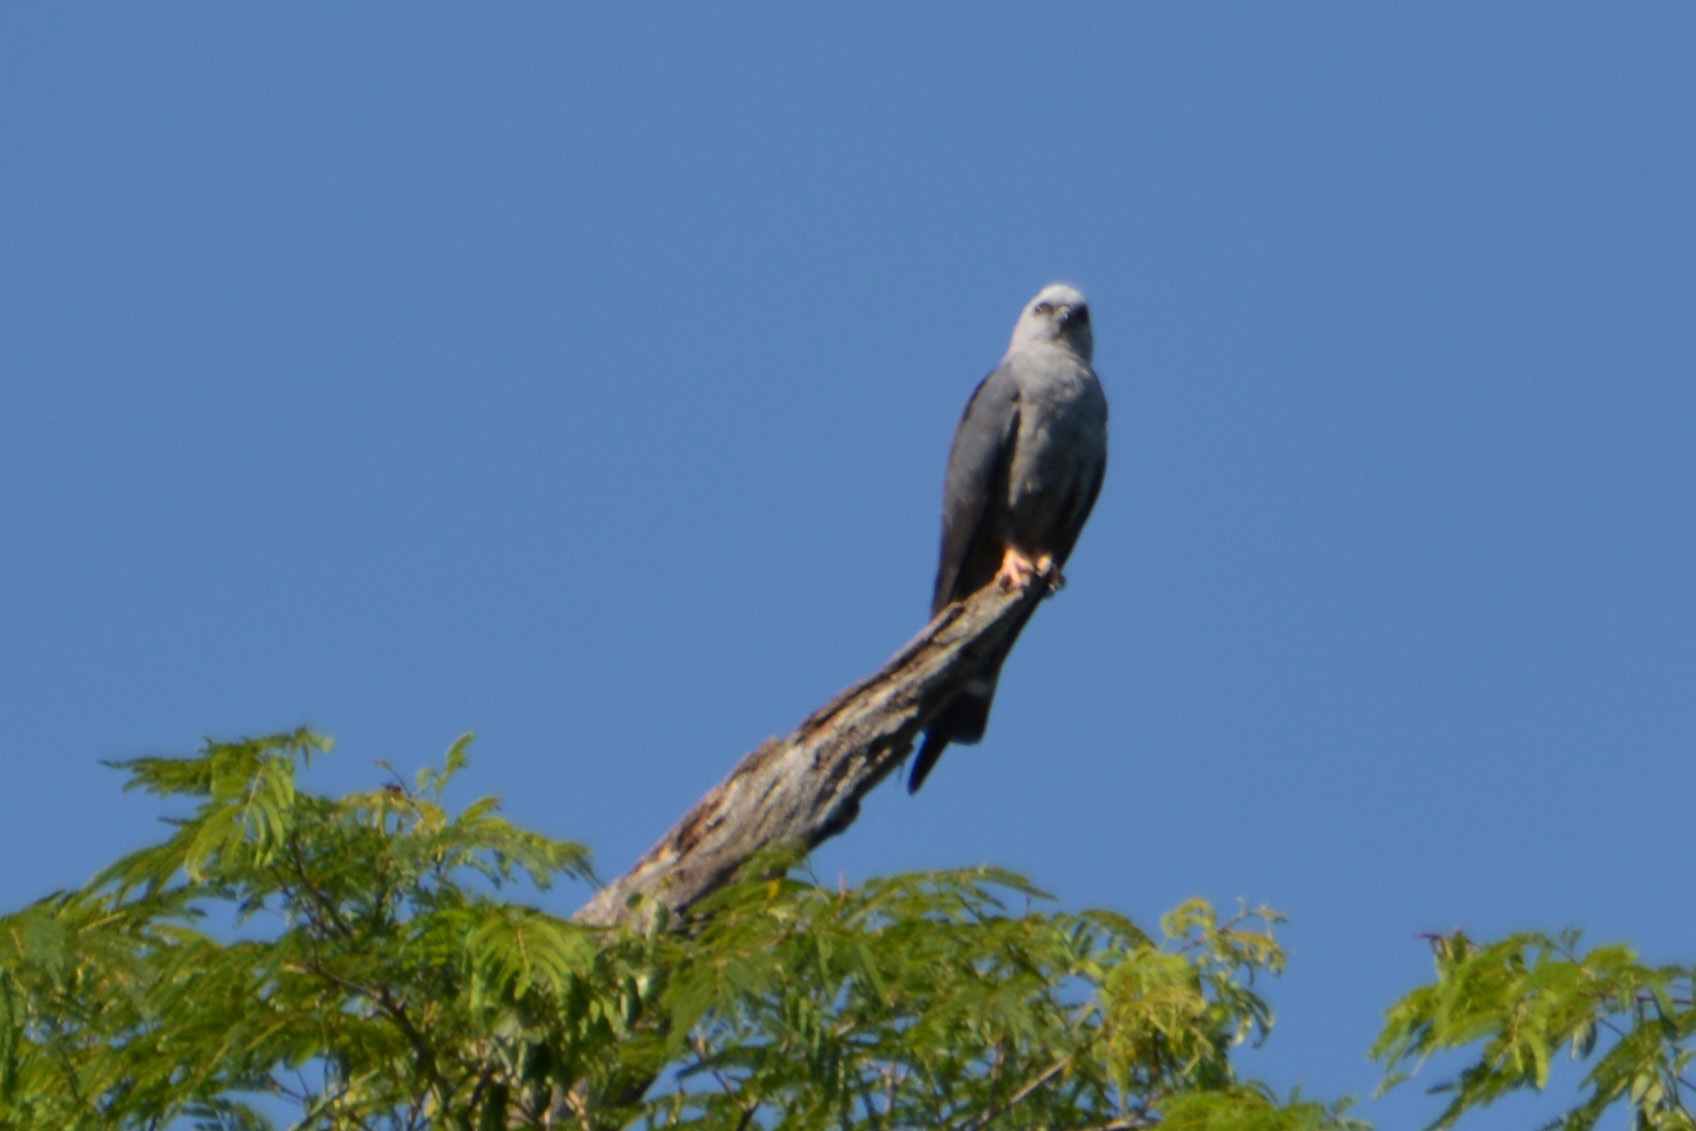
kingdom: Animalia
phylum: Chordata
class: Aves
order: Accipitriformes
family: Accipitridae
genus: Ictinia
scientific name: Ictinia plumbea
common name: Plumbeous kite
